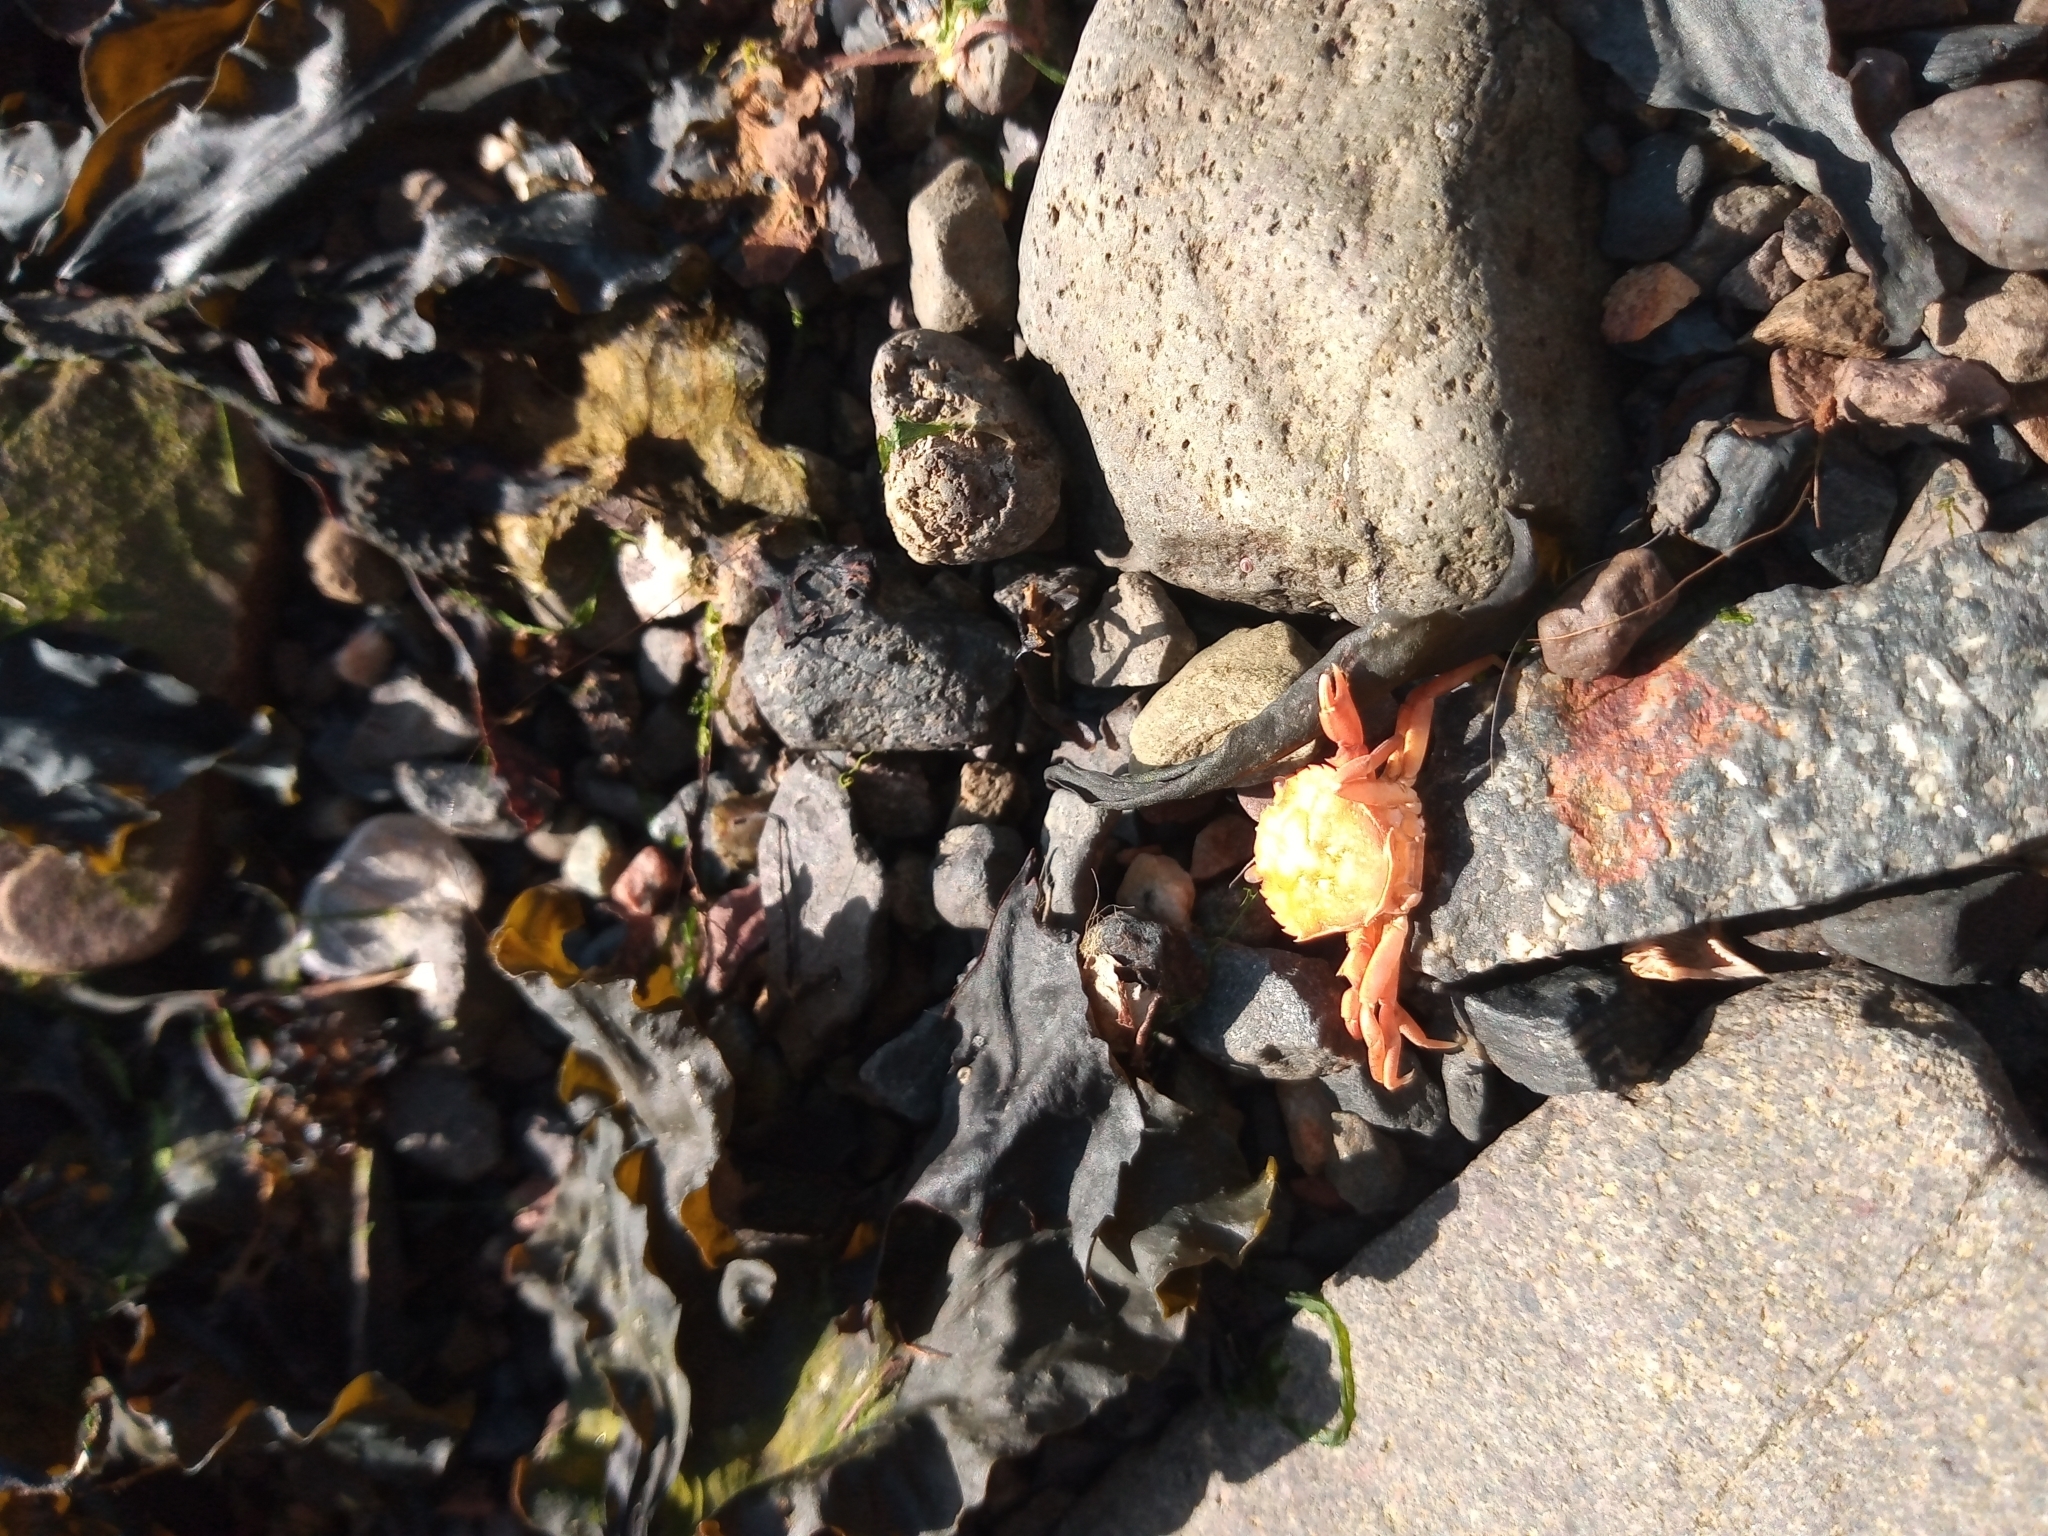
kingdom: Animalia
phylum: Arthropoda
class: Malacostraca
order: Decapoda
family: Carcinidae
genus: Carcinus
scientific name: Carcinus maenas
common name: European green crab
